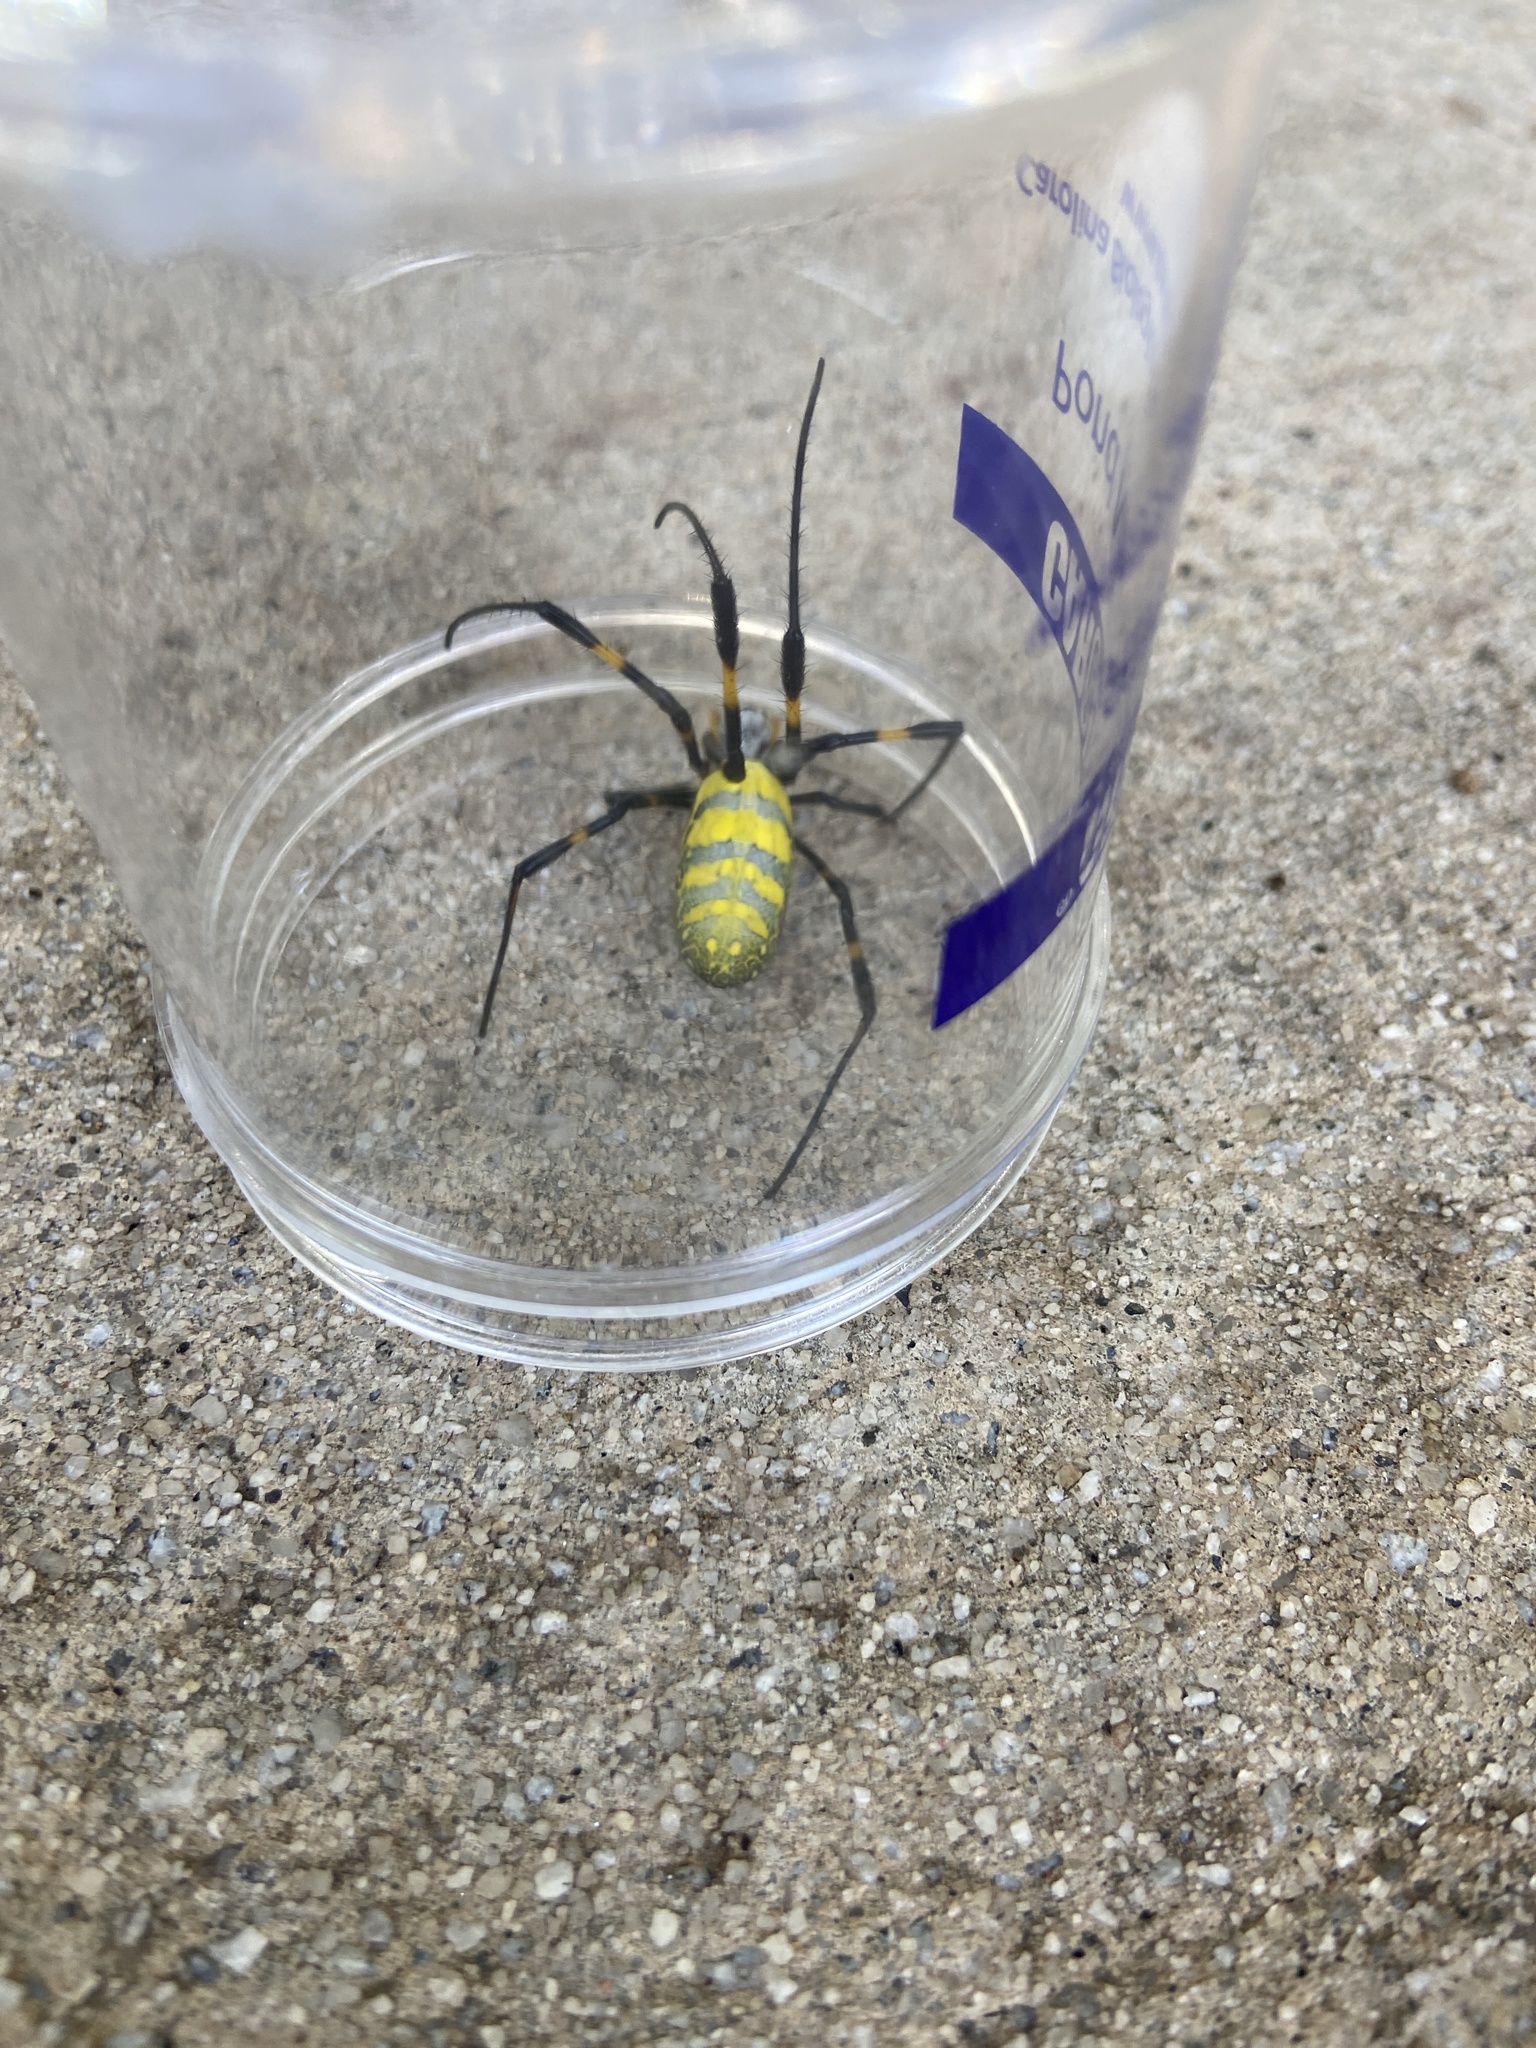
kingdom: Animalia
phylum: Arthropoda
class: Arachnida
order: Araneae
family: Araneidae
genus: Trichonephila
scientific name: Trichonephila clavata
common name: Jorō spider
